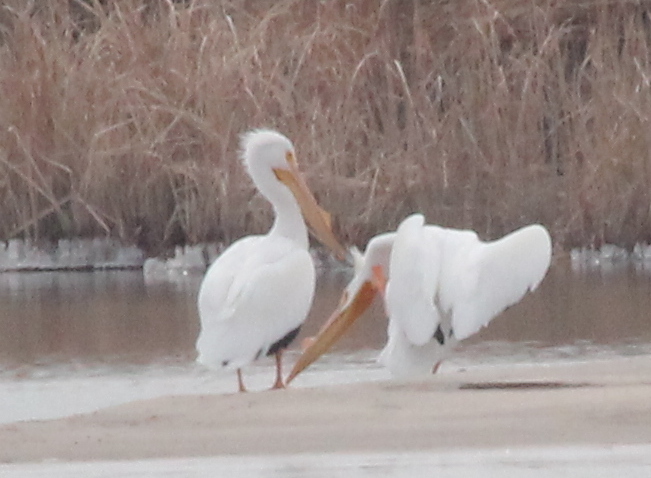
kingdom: Animalia
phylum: Chordata
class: Aves
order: Pelecaniformes
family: Pelecanidae
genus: Pelecanus
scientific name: Pelecanus erythrorhynchos
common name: American white pelican
